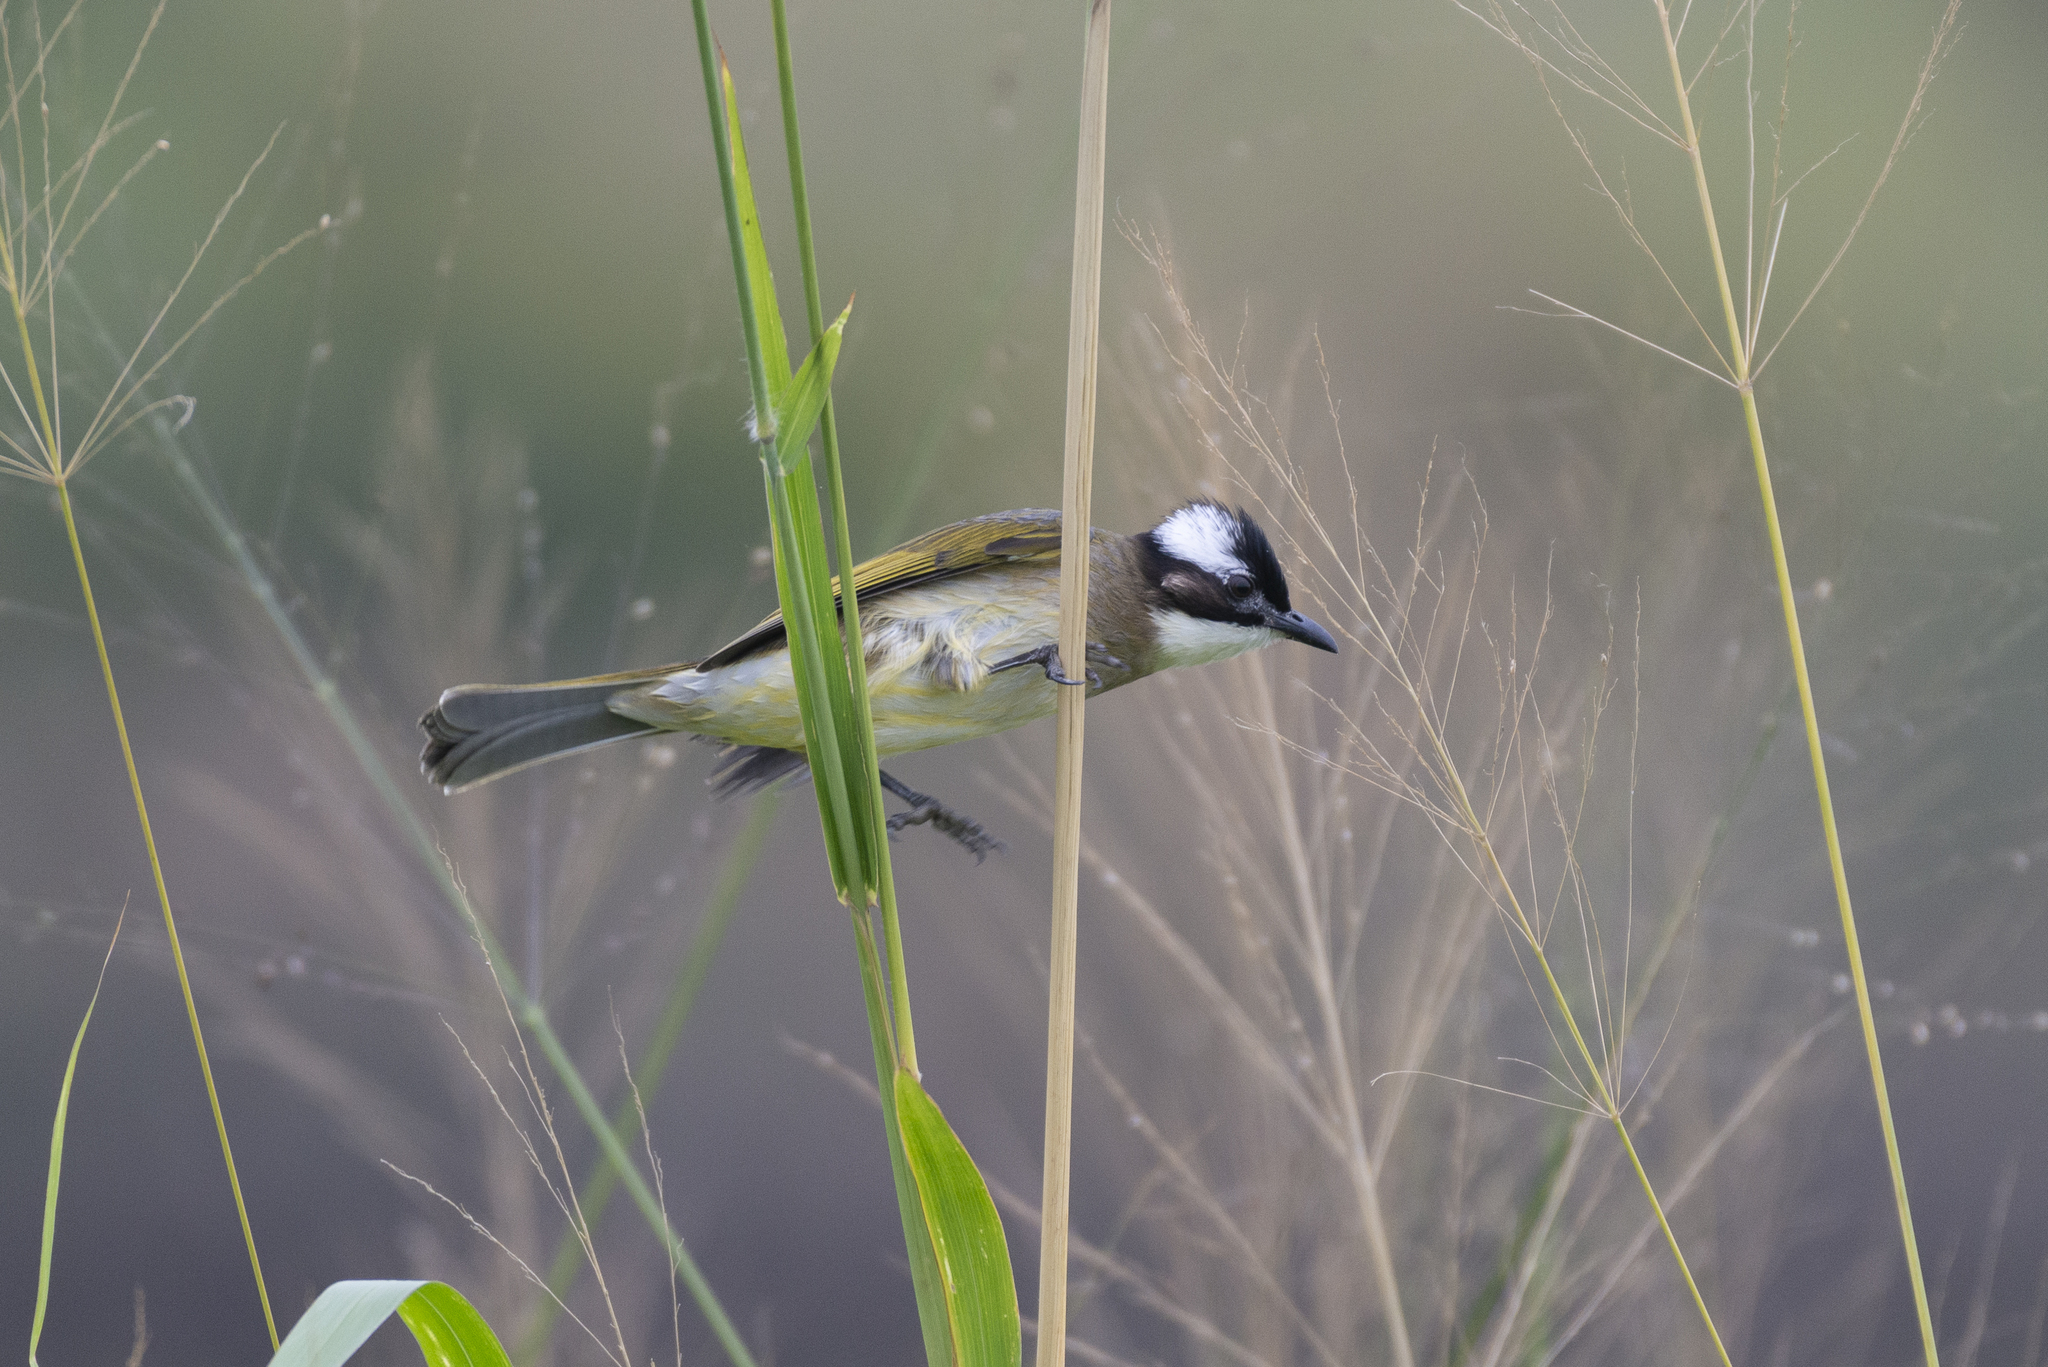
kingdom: Animalia
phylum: Chordata
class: Aves
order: Passeriformes
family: Pycnonotidae
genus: Pycnonotus
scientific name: Pycnonotus sinensis
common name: Light-vented bulbul
